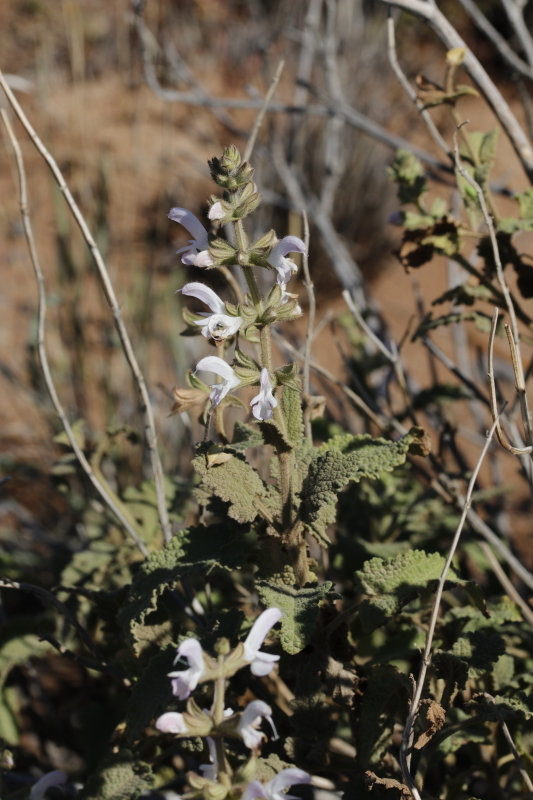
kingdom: Plantae
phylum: Tracheophyta
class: Magnoliopsida
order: Lamiales
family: Lamiaceae
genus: Salvia
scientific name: Salvia disermas
